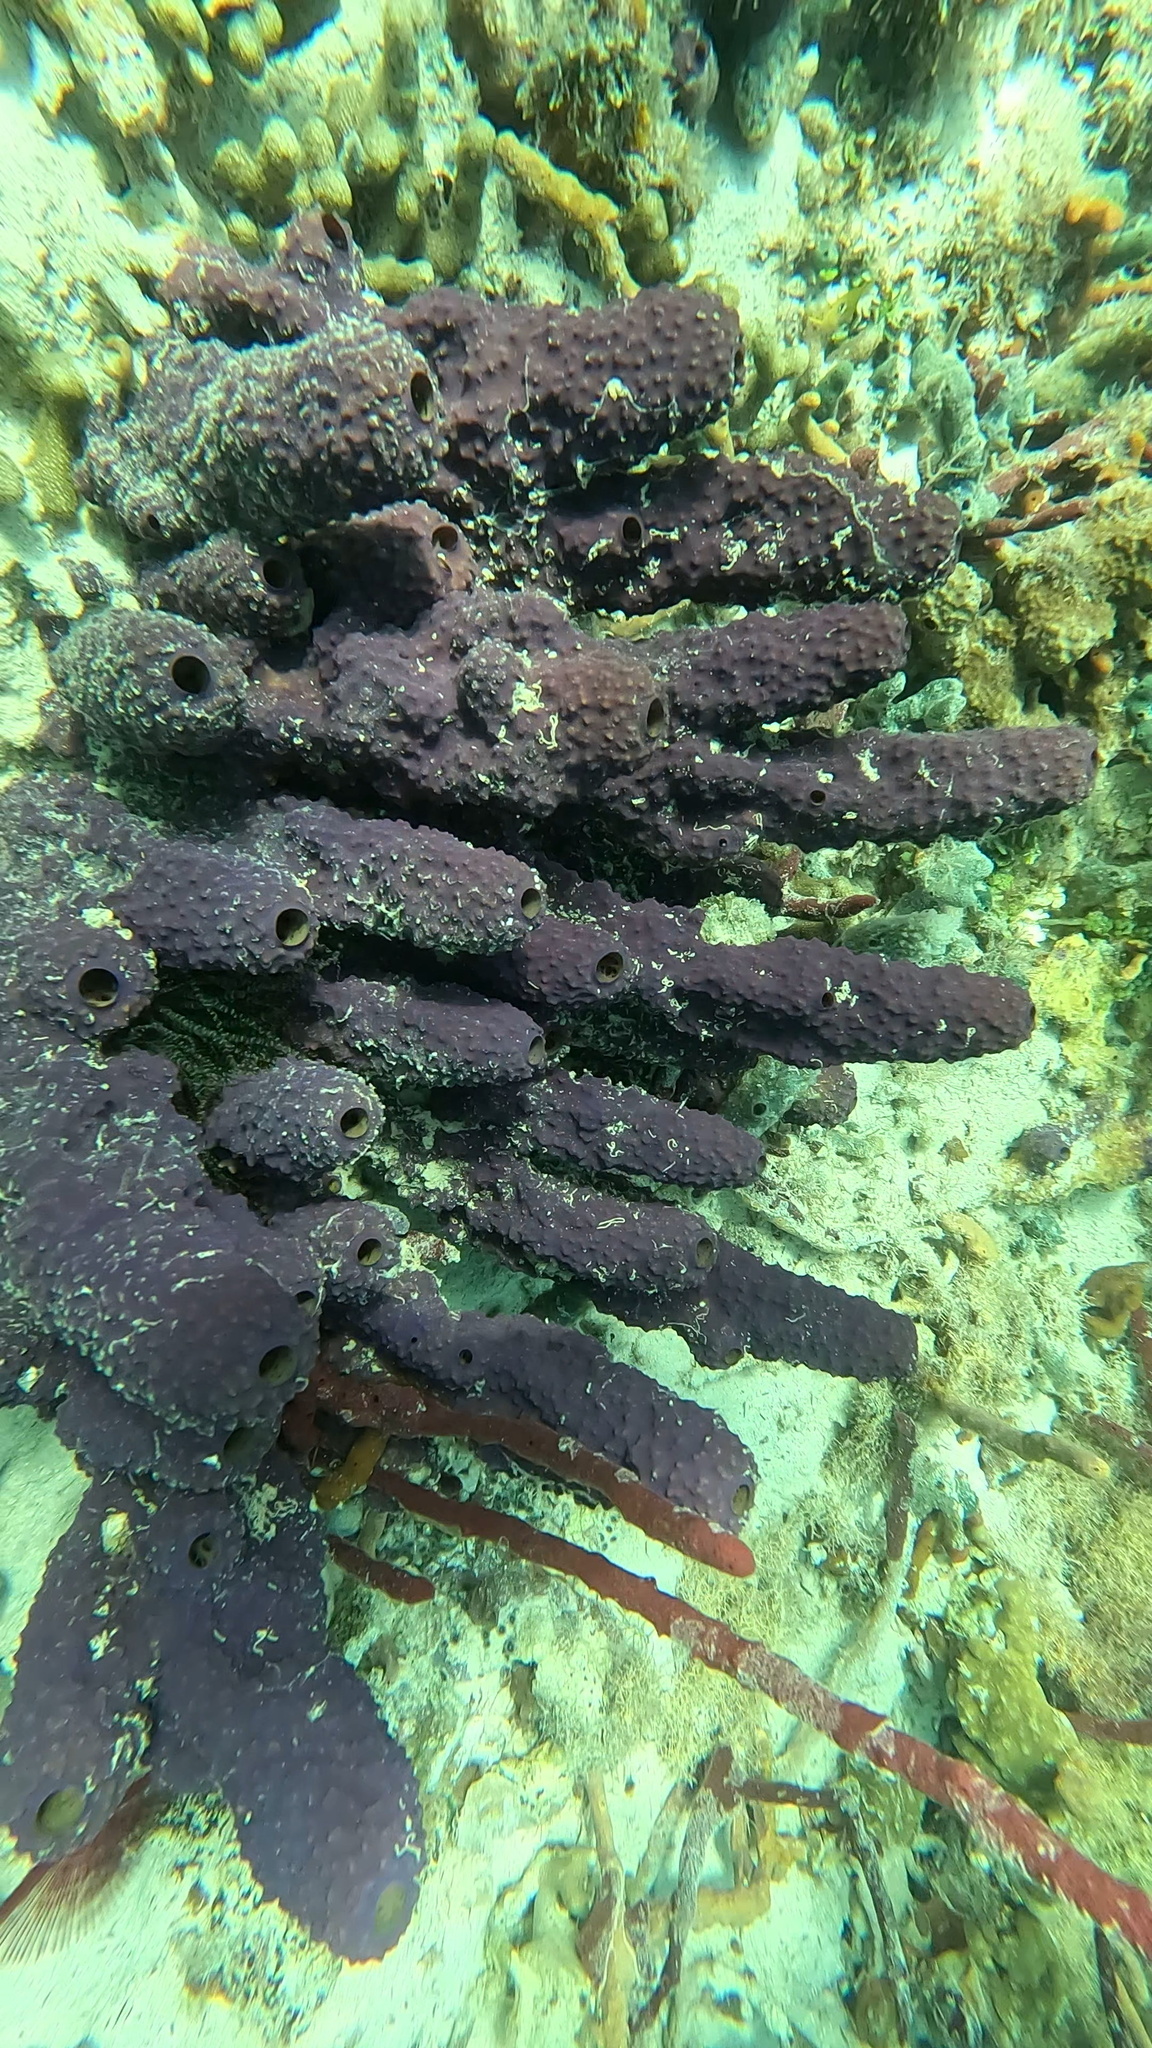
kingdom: Animalia
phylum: Porifera
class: Demospongiae
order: Verongiida
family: Aplysinidae
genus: Aiolochroia
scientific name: Aiolochroia crassa
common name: Branching tube sponge
